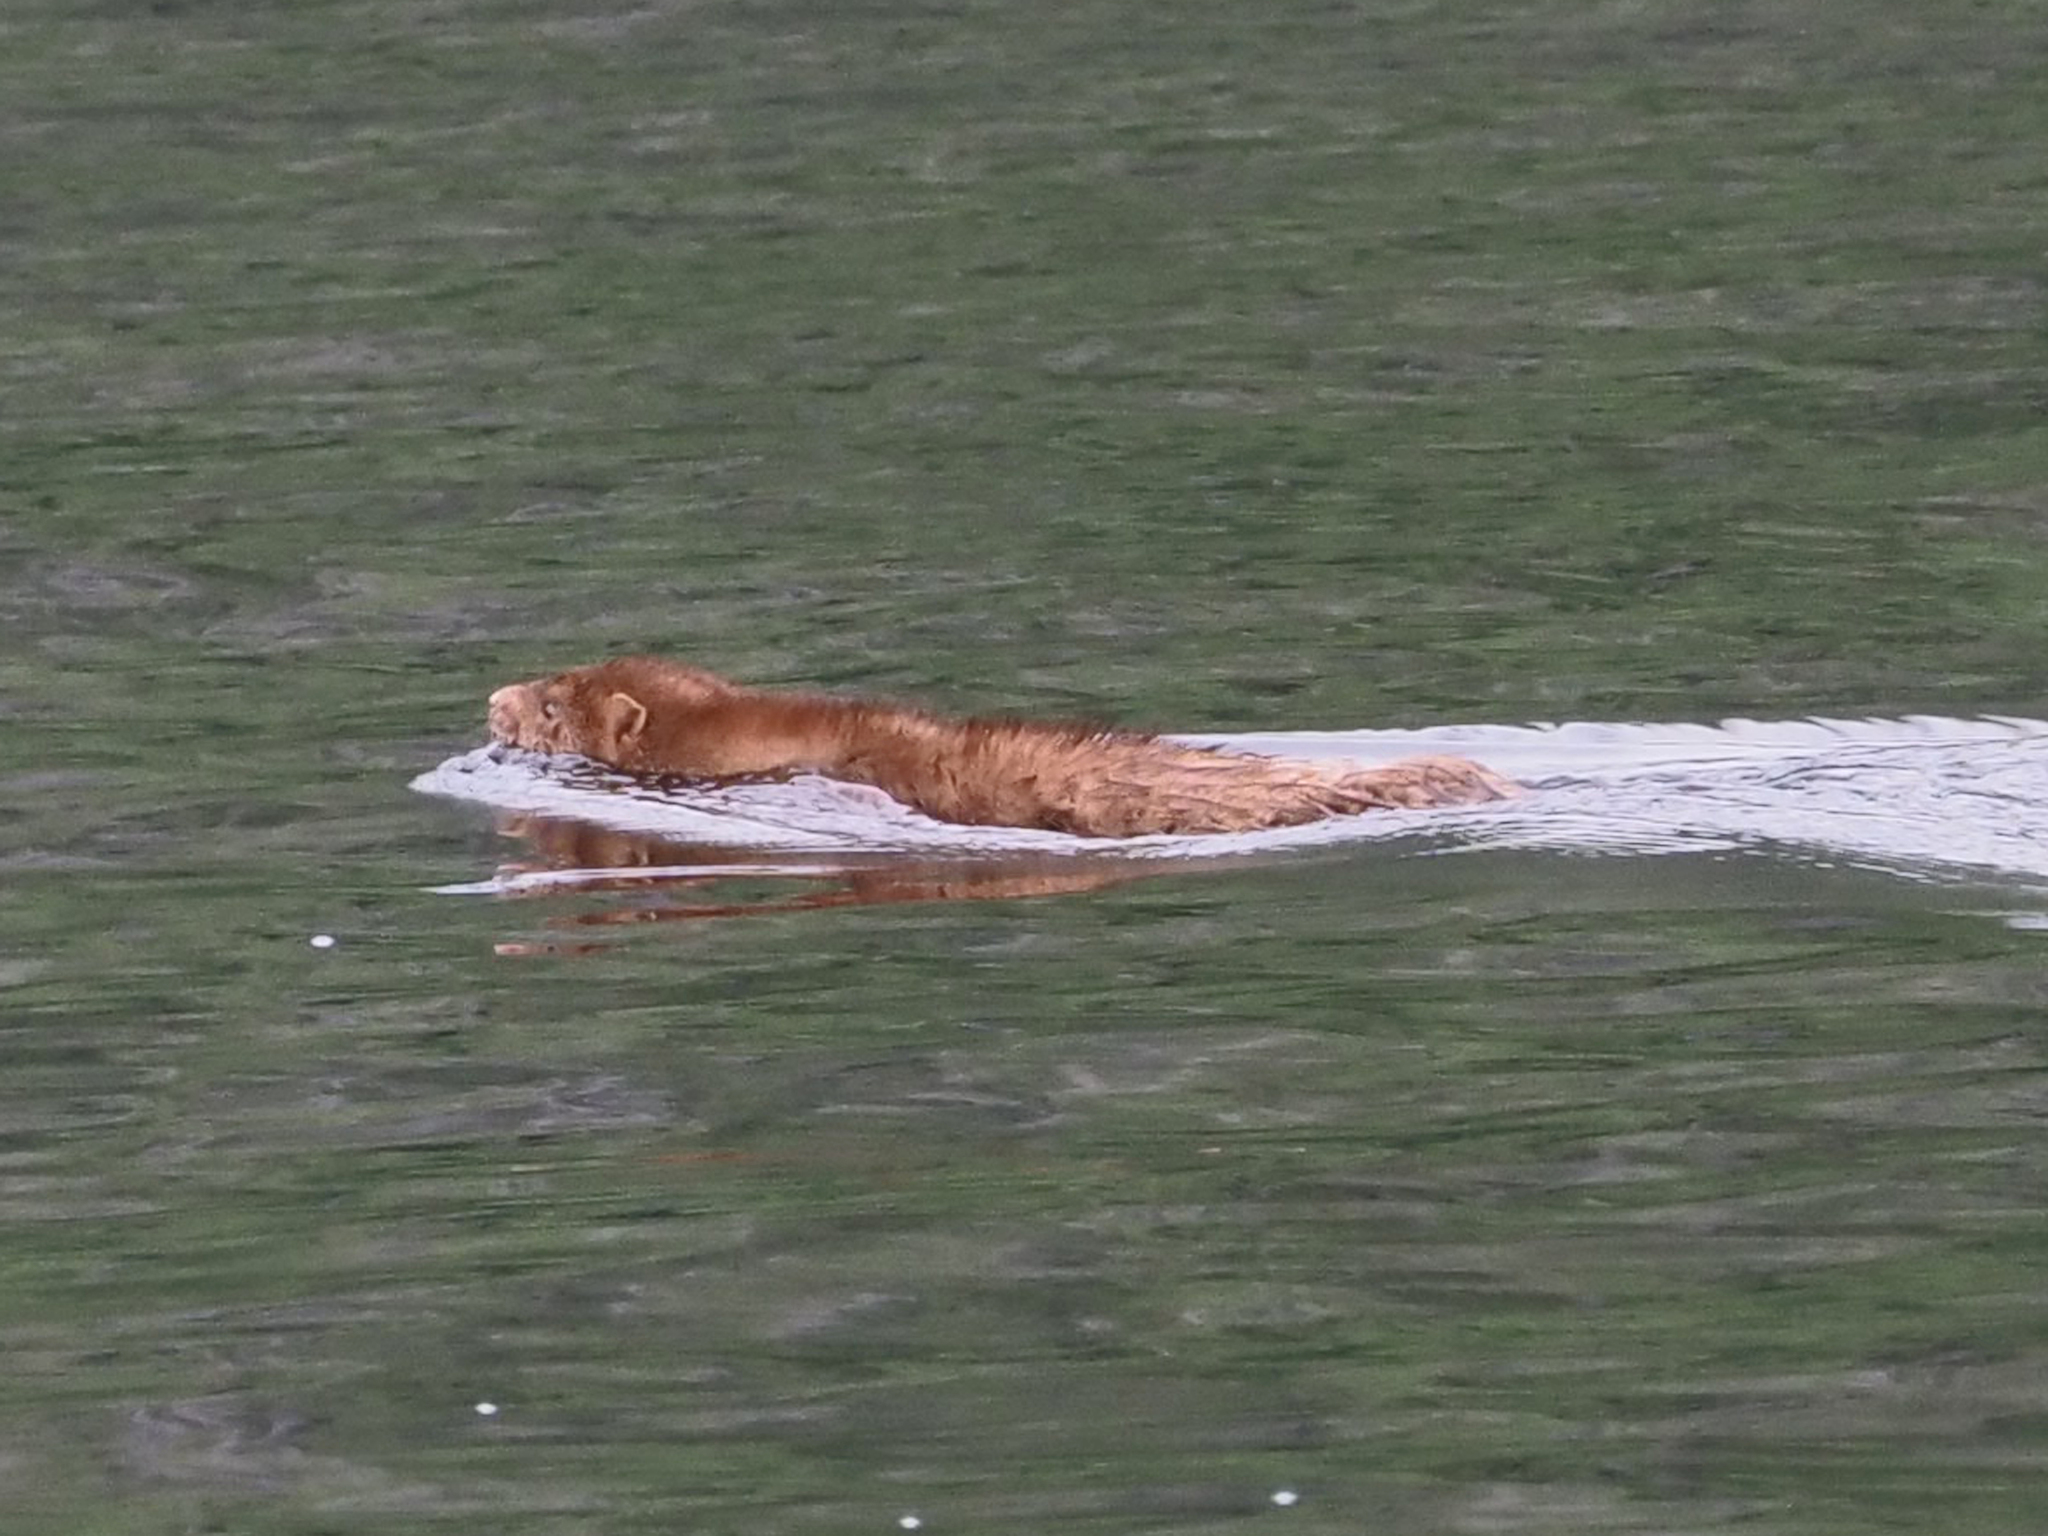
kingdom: Animalia
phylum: Chordata
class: Mammalia
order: Carnivora
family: Mustelidae
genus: Mustela
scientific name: Mustela
